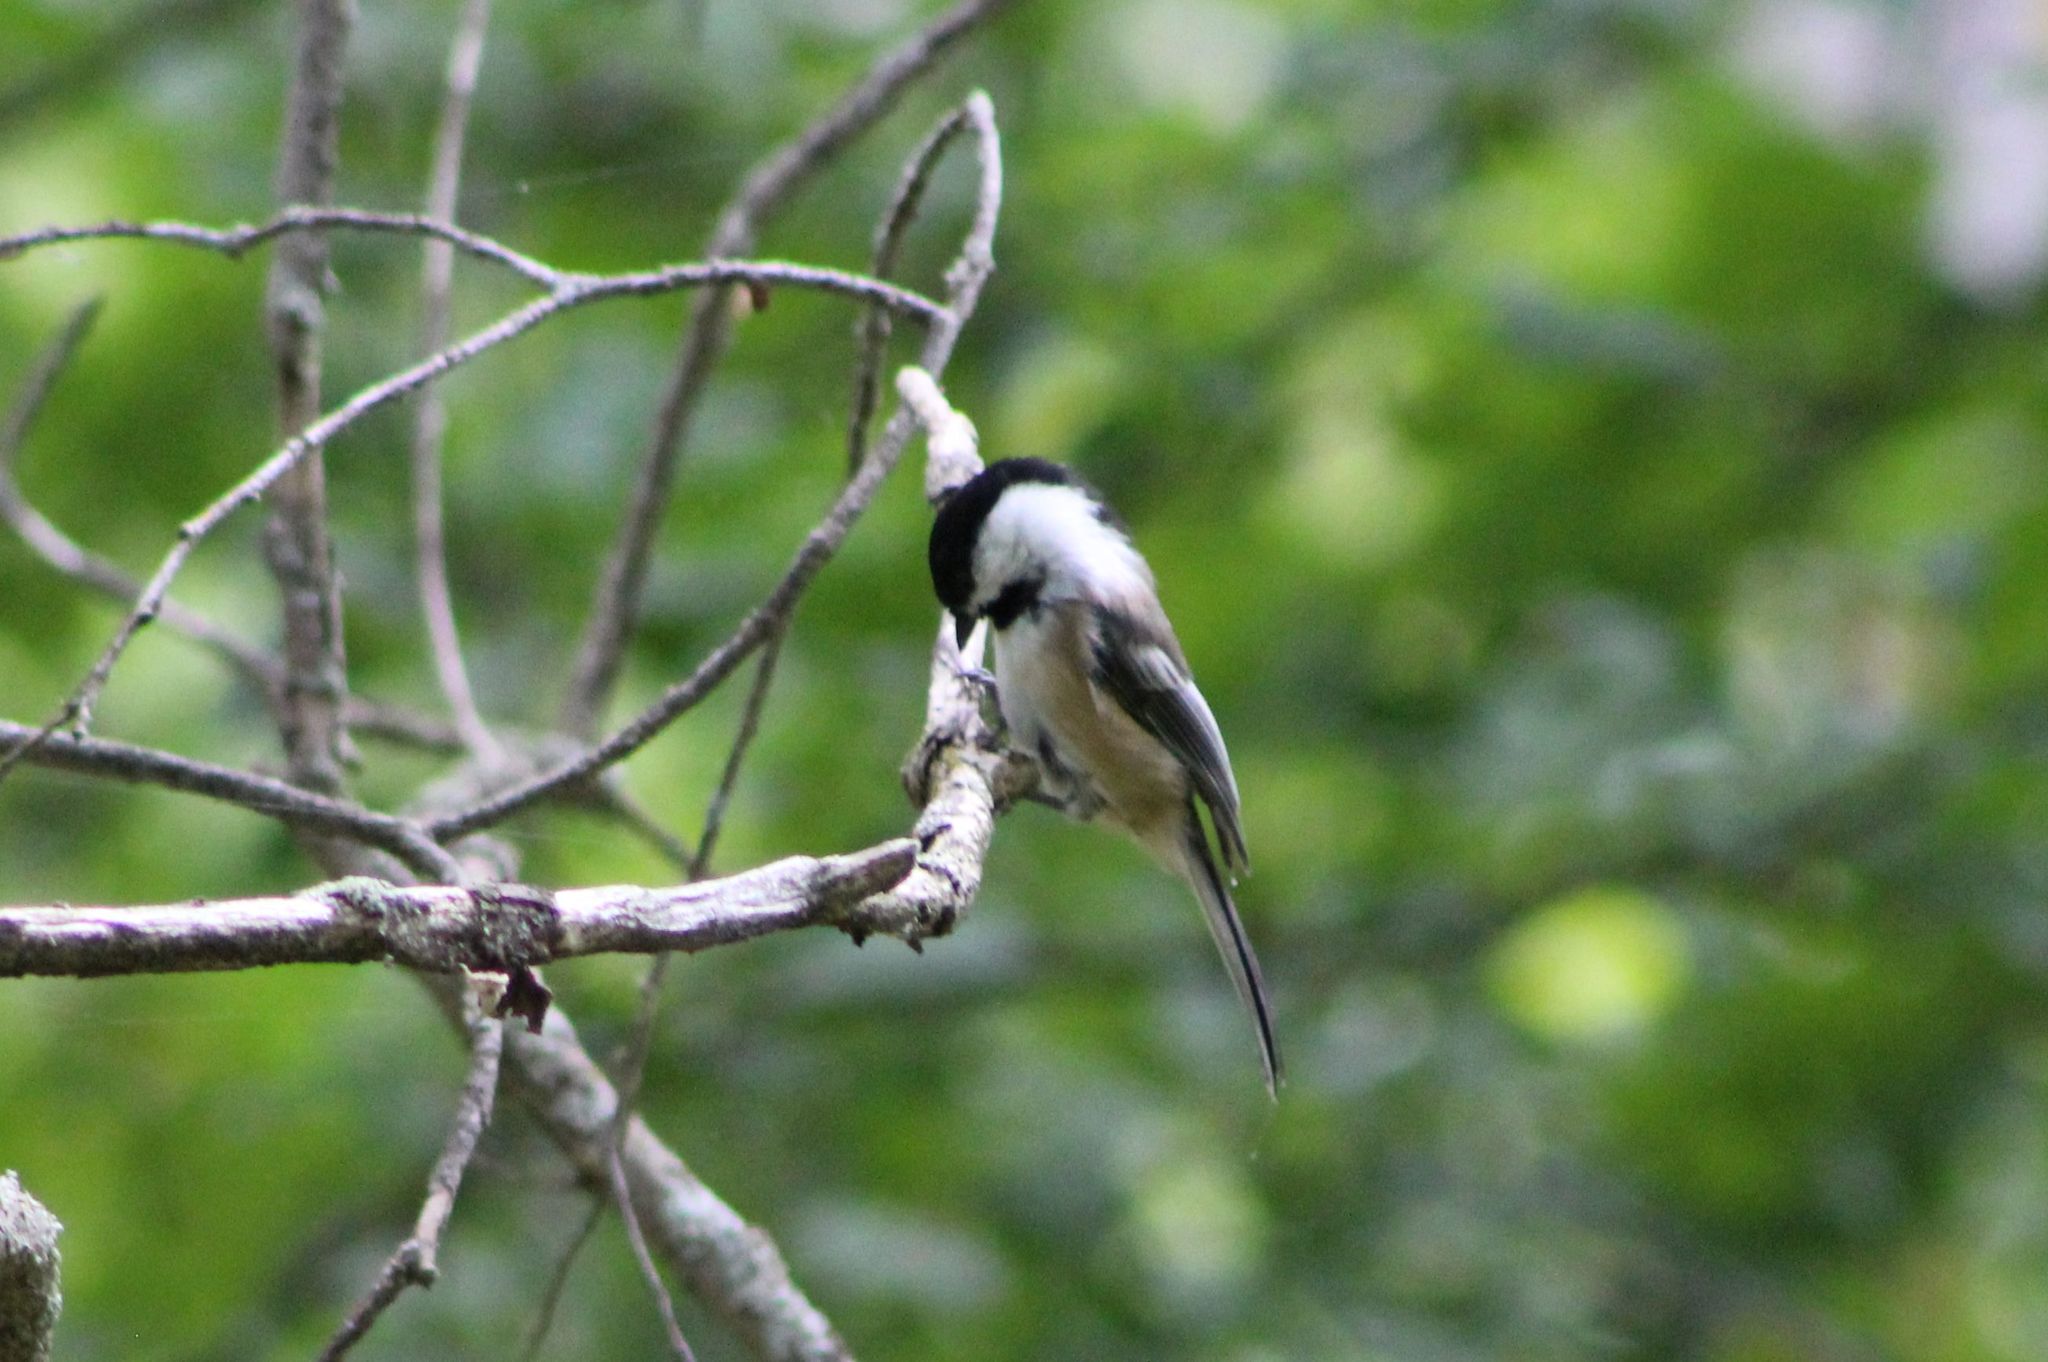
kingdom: Animalia
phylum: Chordata
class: Aves
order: Passeriformes
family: Paridae
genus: Poecile
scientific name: Poecile atricapillus
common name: Black-capped chickadee
